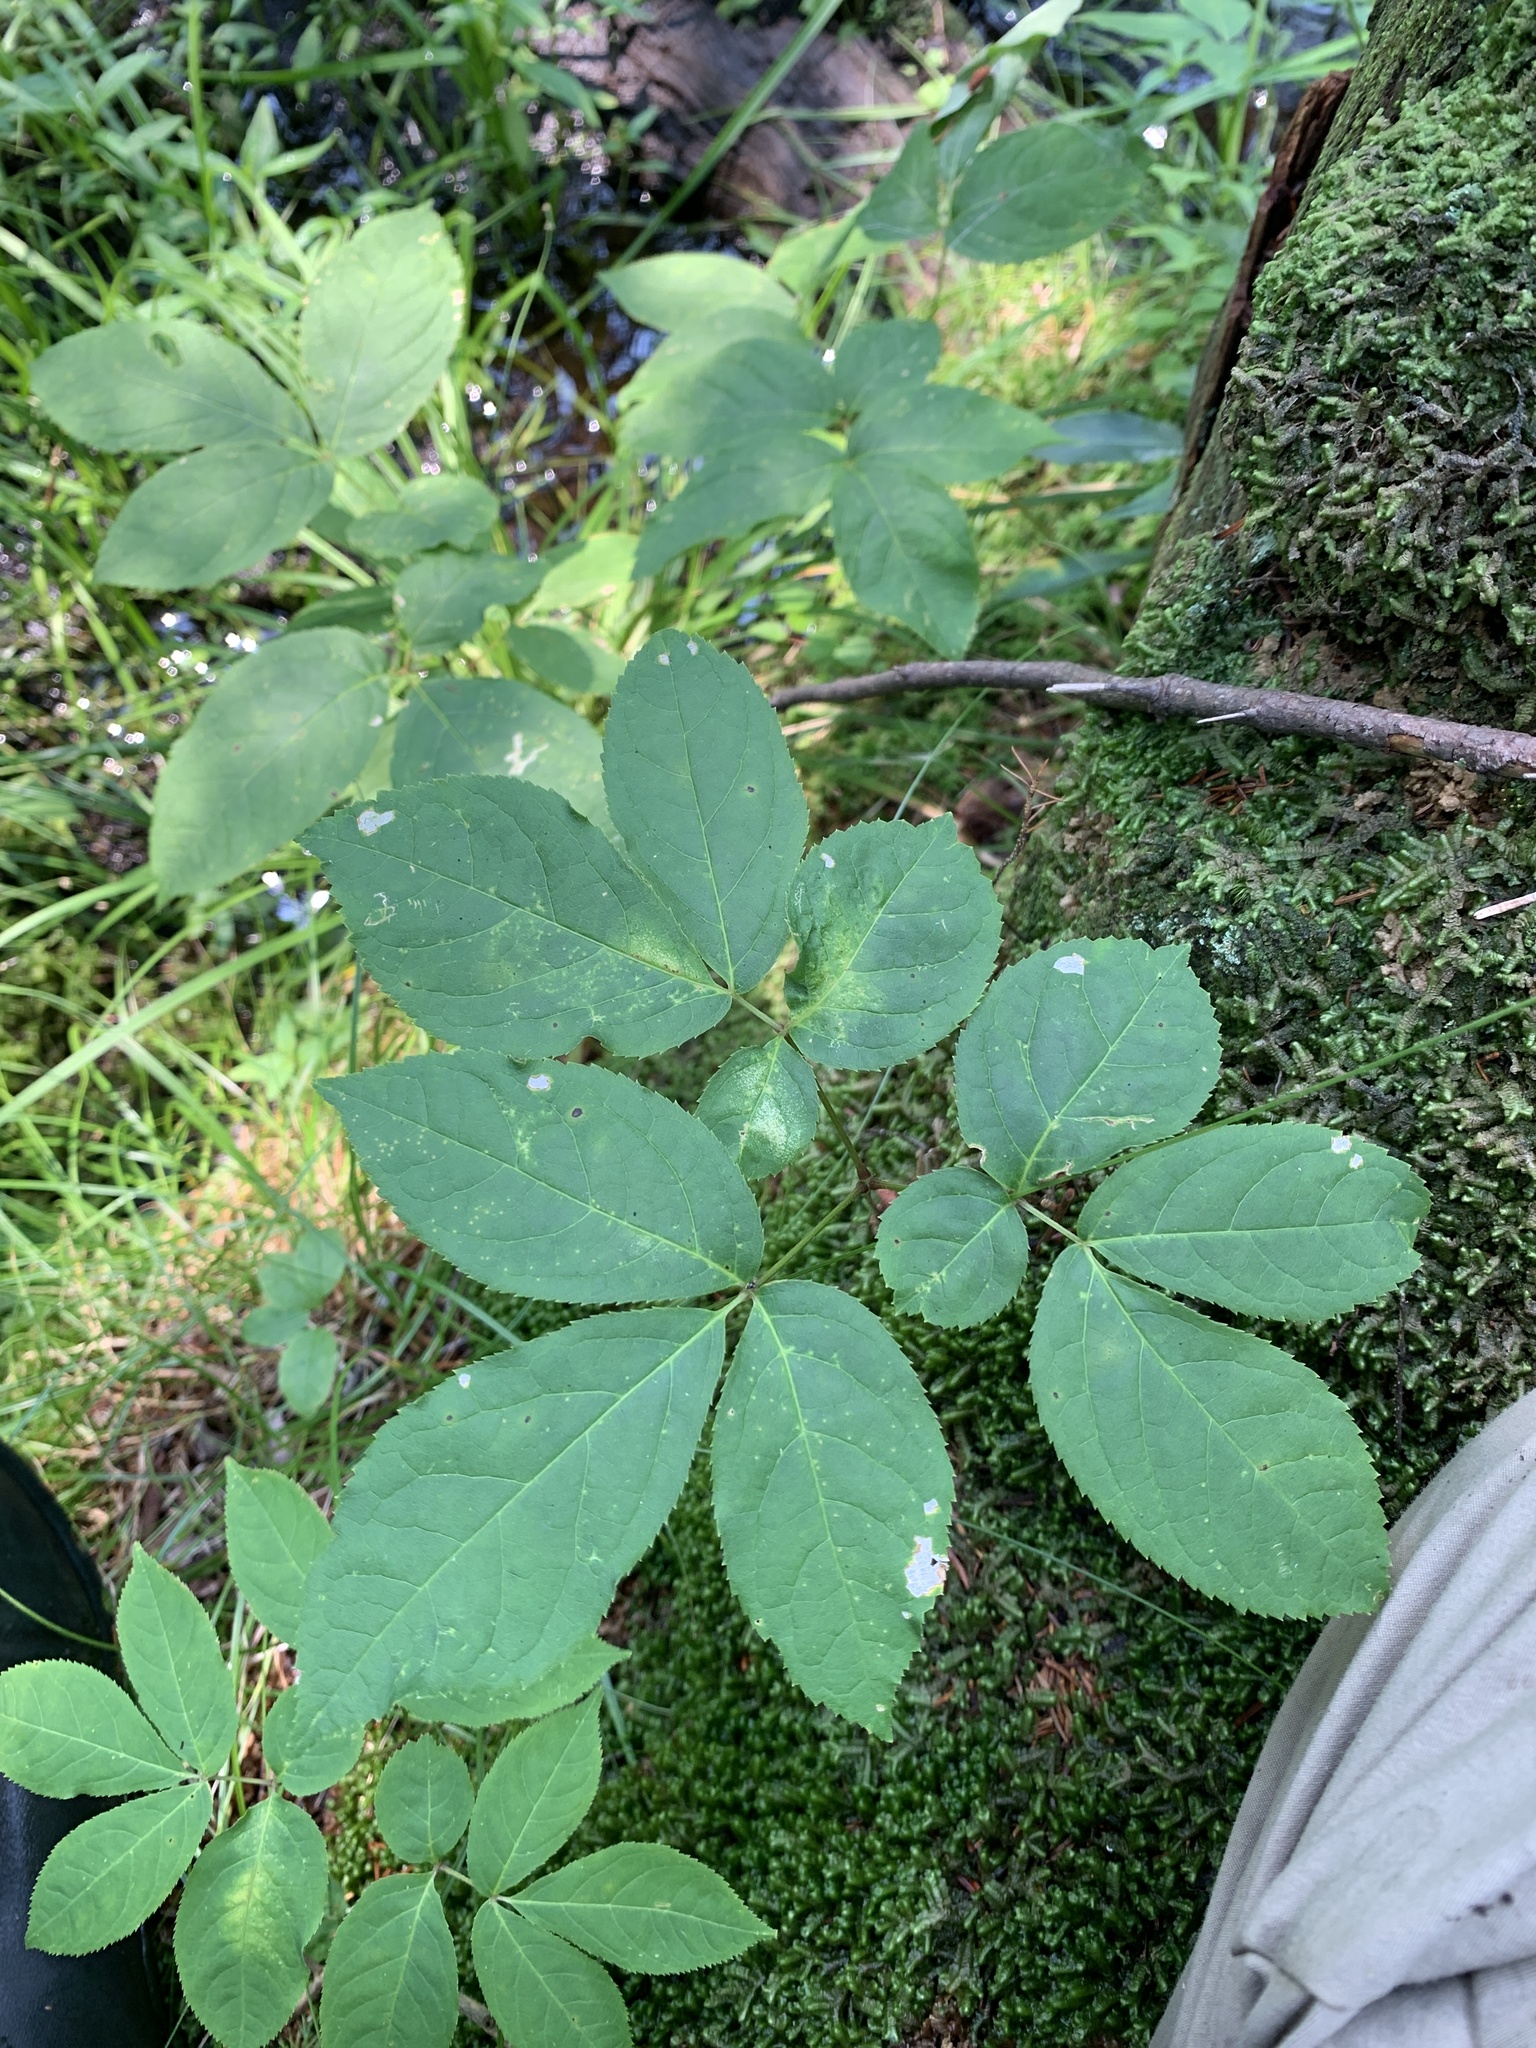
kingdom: Plantae
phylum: Tracheophyta
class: Magnoliopsida
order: Apiales
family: Araliaceae
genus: Aralia
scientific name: Aralia nudicaulis
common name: Wild sarsaparilla
